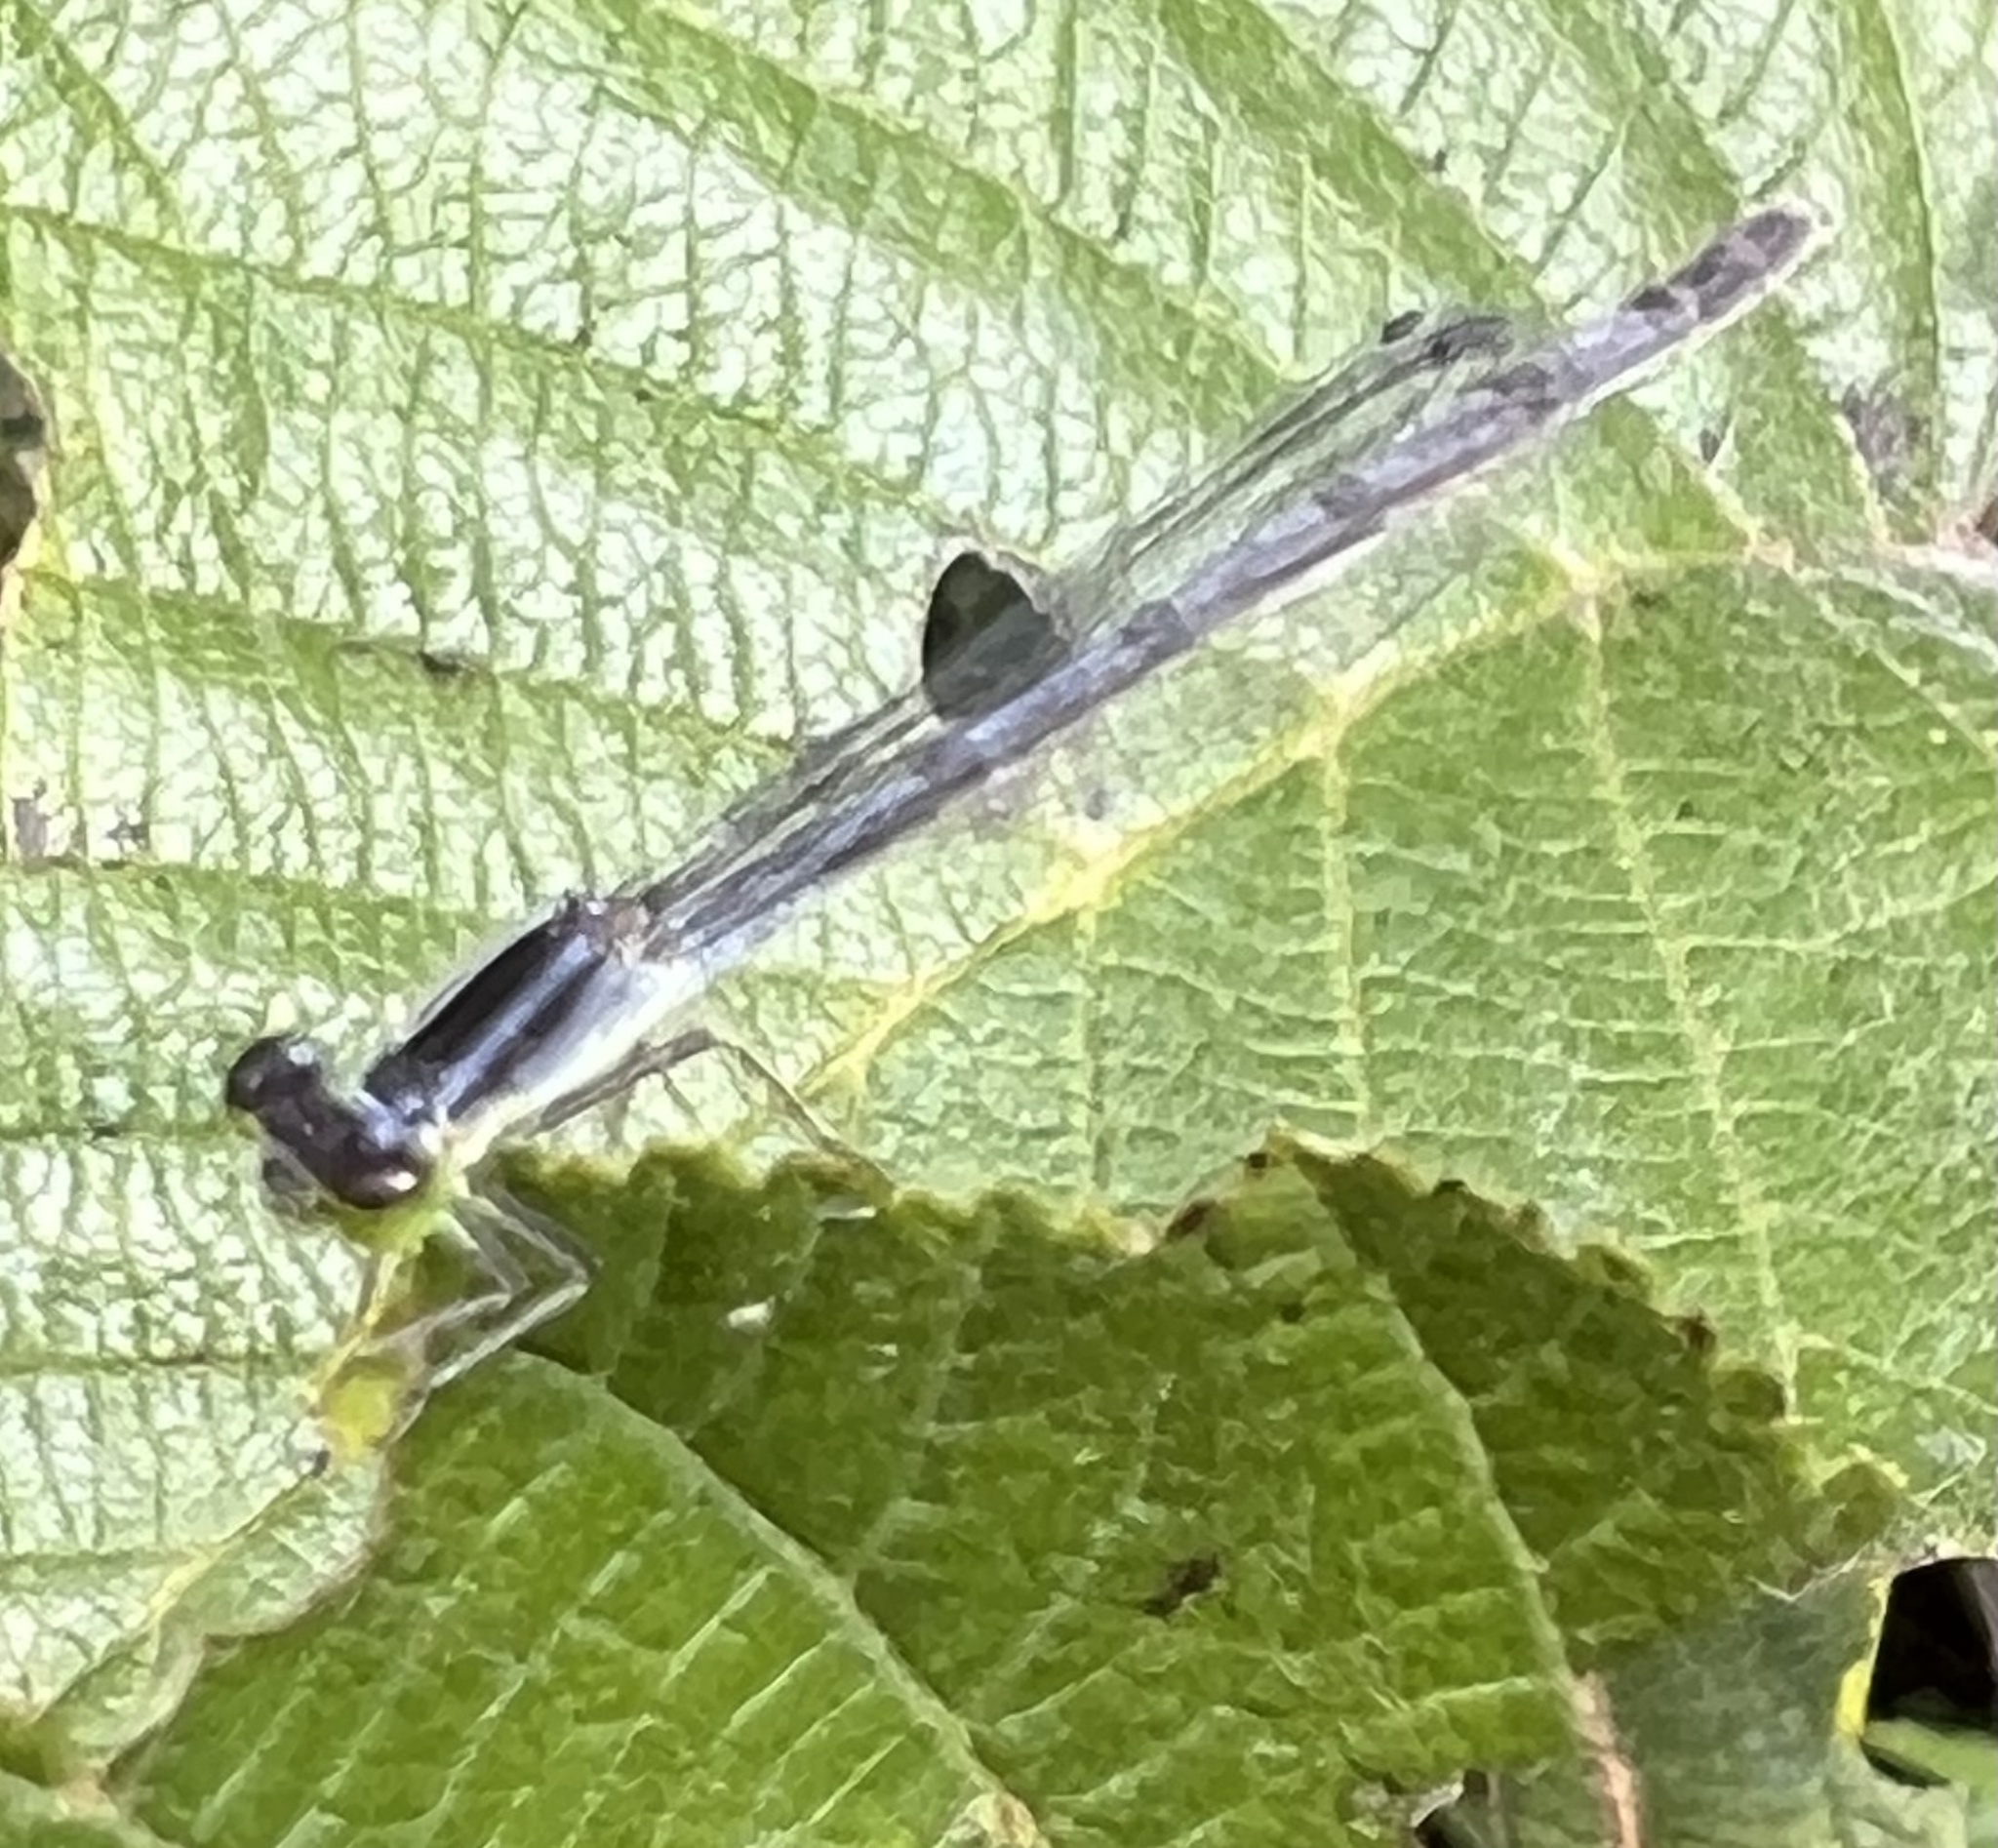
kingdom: Animalia
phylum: Arthropoda
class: Insecta
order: Odonata
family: Coenagrionidae
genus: Ischnura
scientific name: Ischnura verticalis
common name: Eastern forktail
